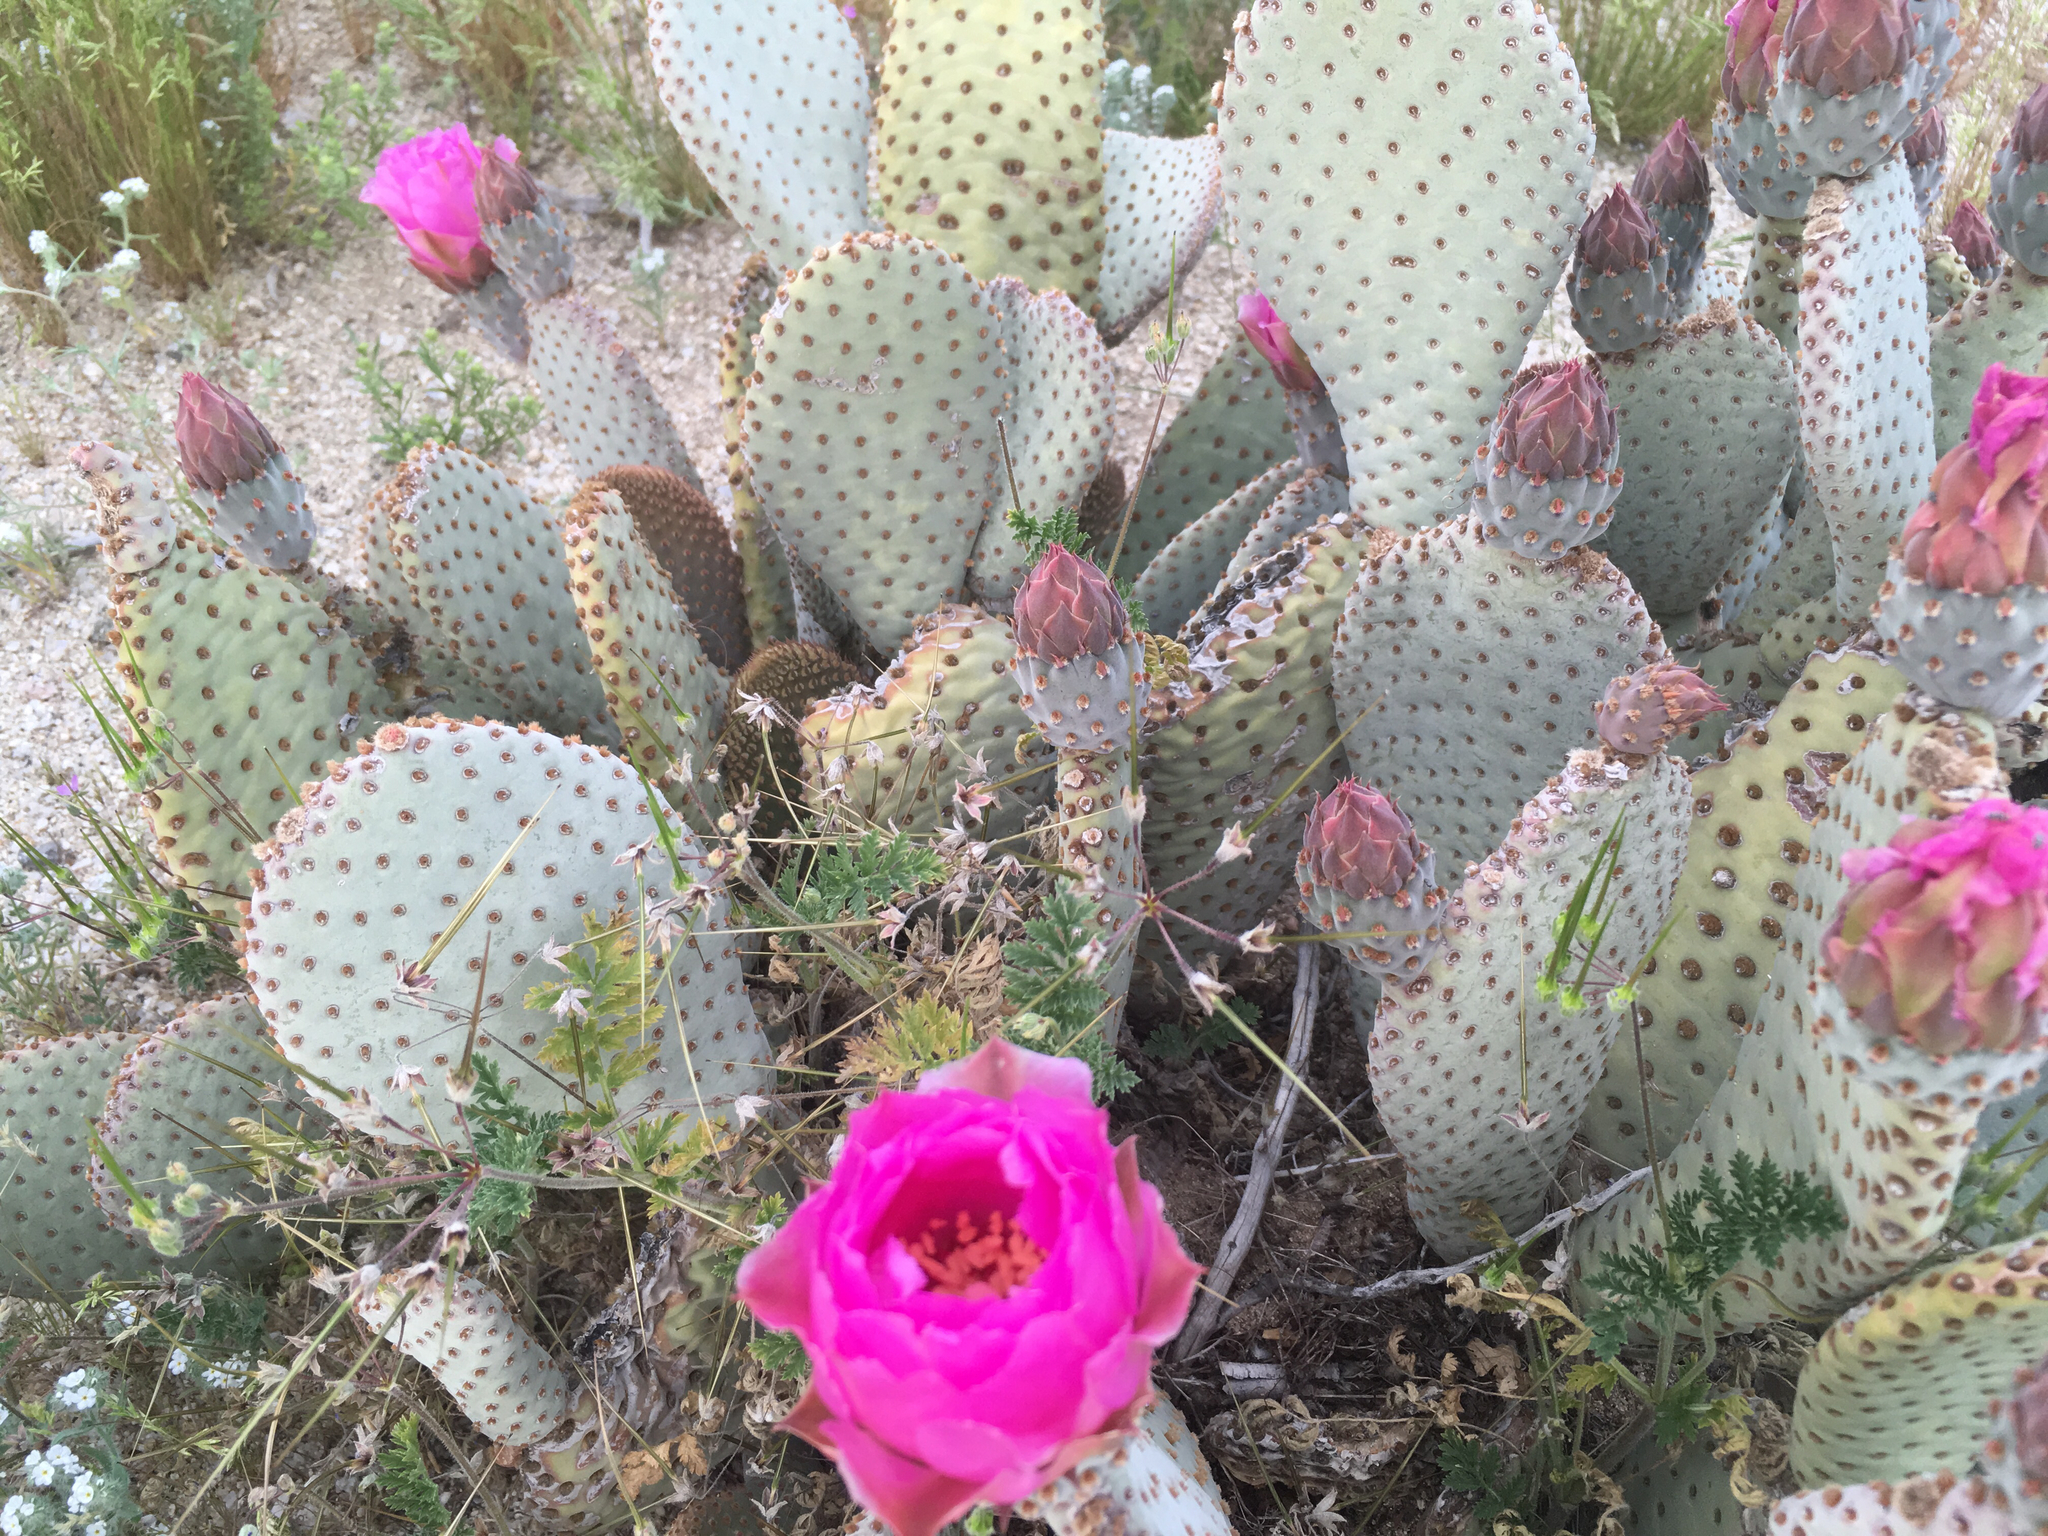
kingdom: Plantae
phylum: Tracheophyta
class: Magnoliopsida
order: Caryophyllales
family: Cactaceae
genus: Opuntia
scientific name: Opuntia basilaris
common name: Beavertail prickly-pear
